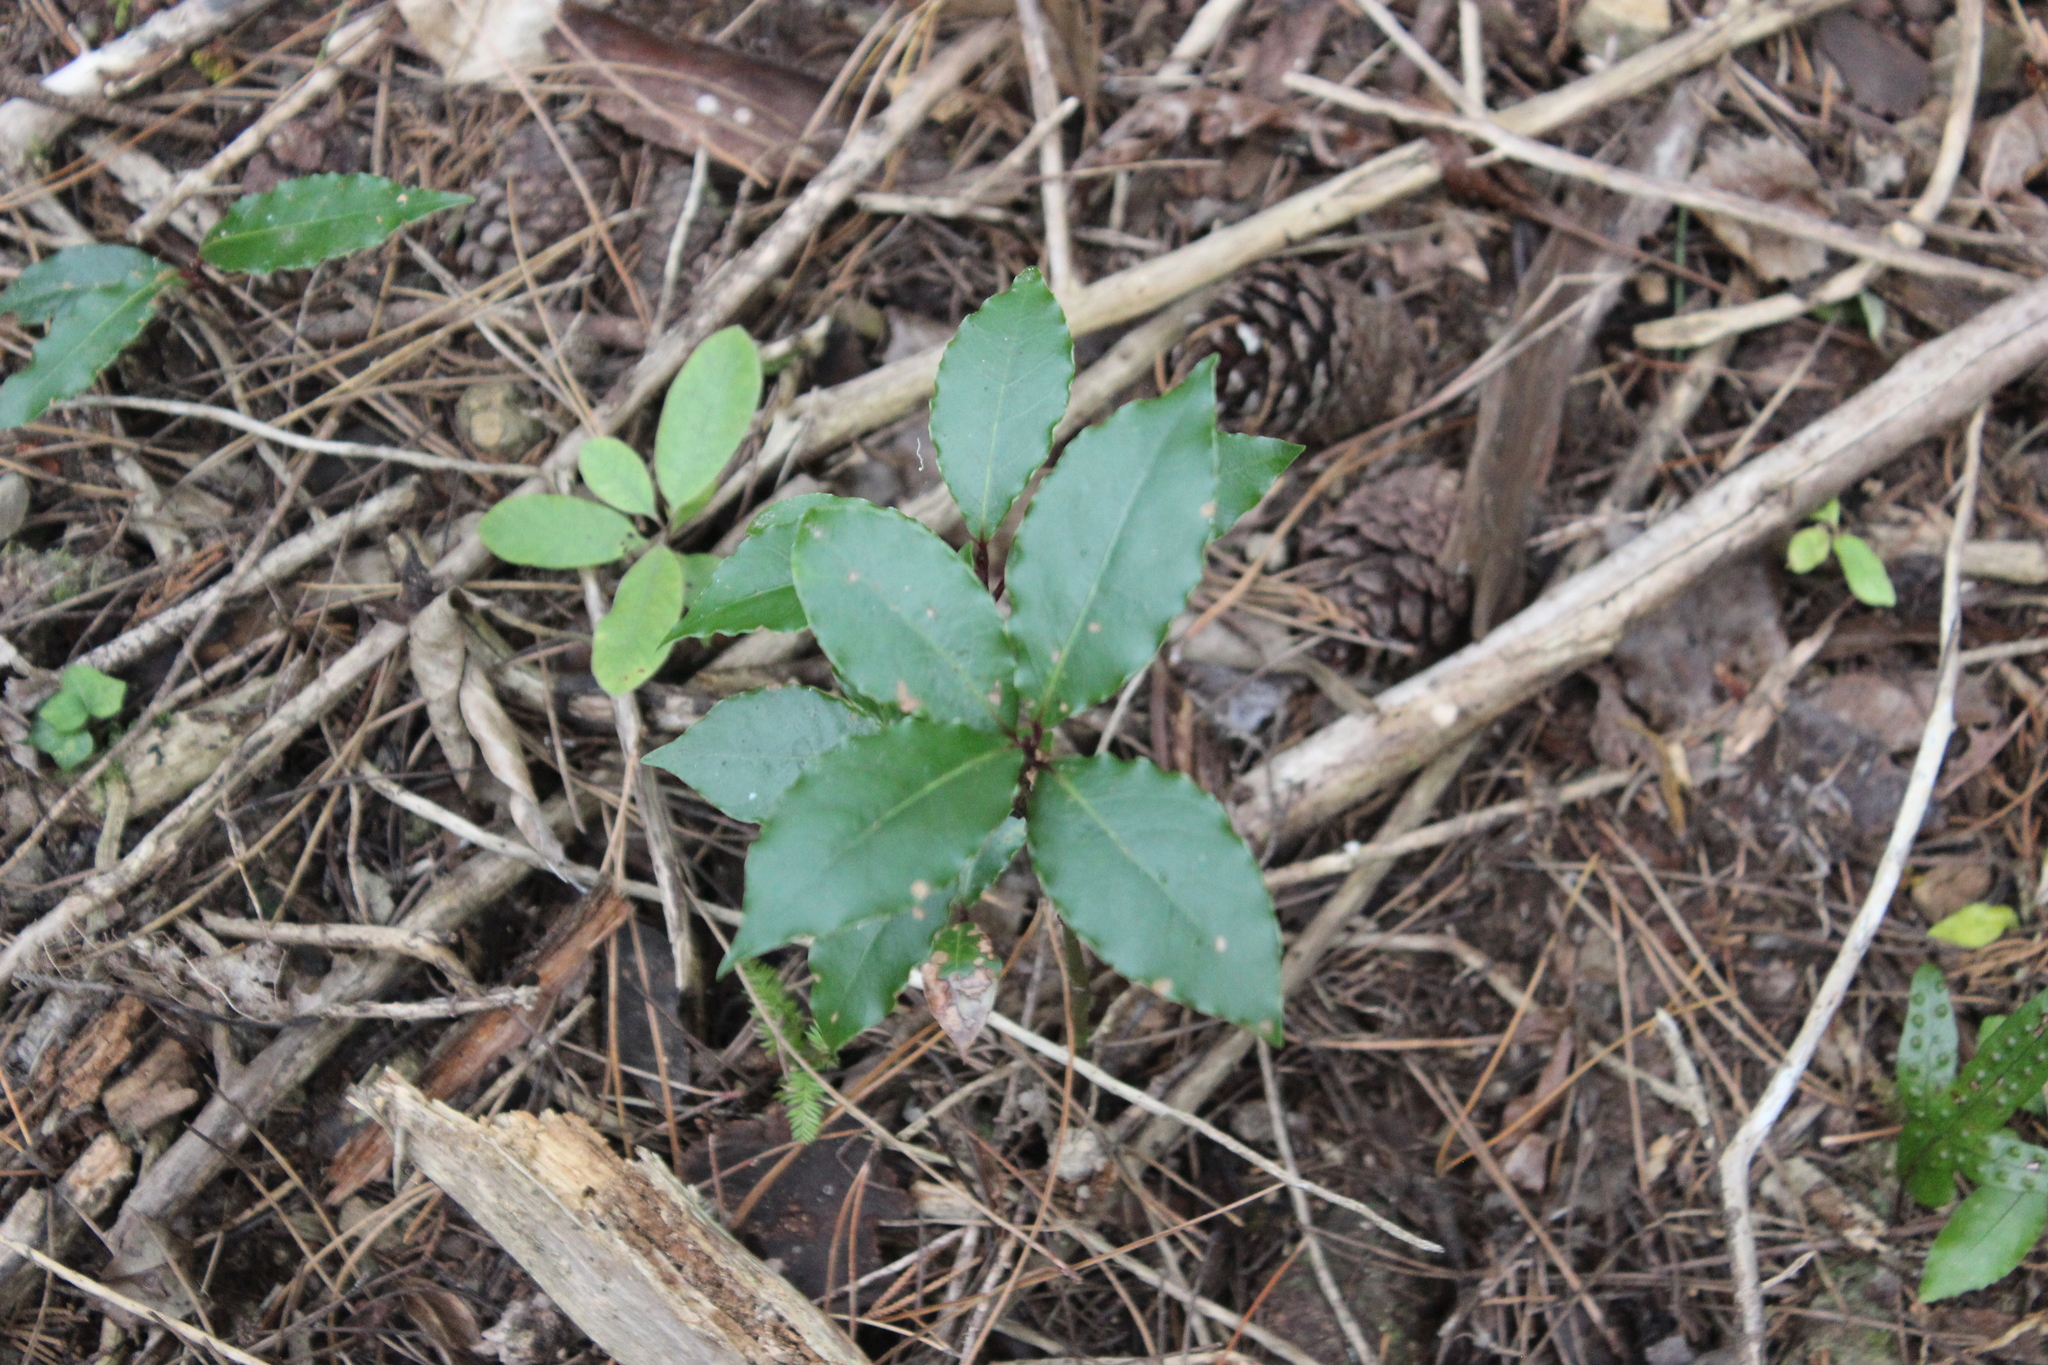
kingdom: Plantae
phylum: Tracheophyta
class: Magnoliopsida
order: Laurales
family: Lauraceae
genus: Laurus
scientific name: Laurus nobilis
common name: Bay
